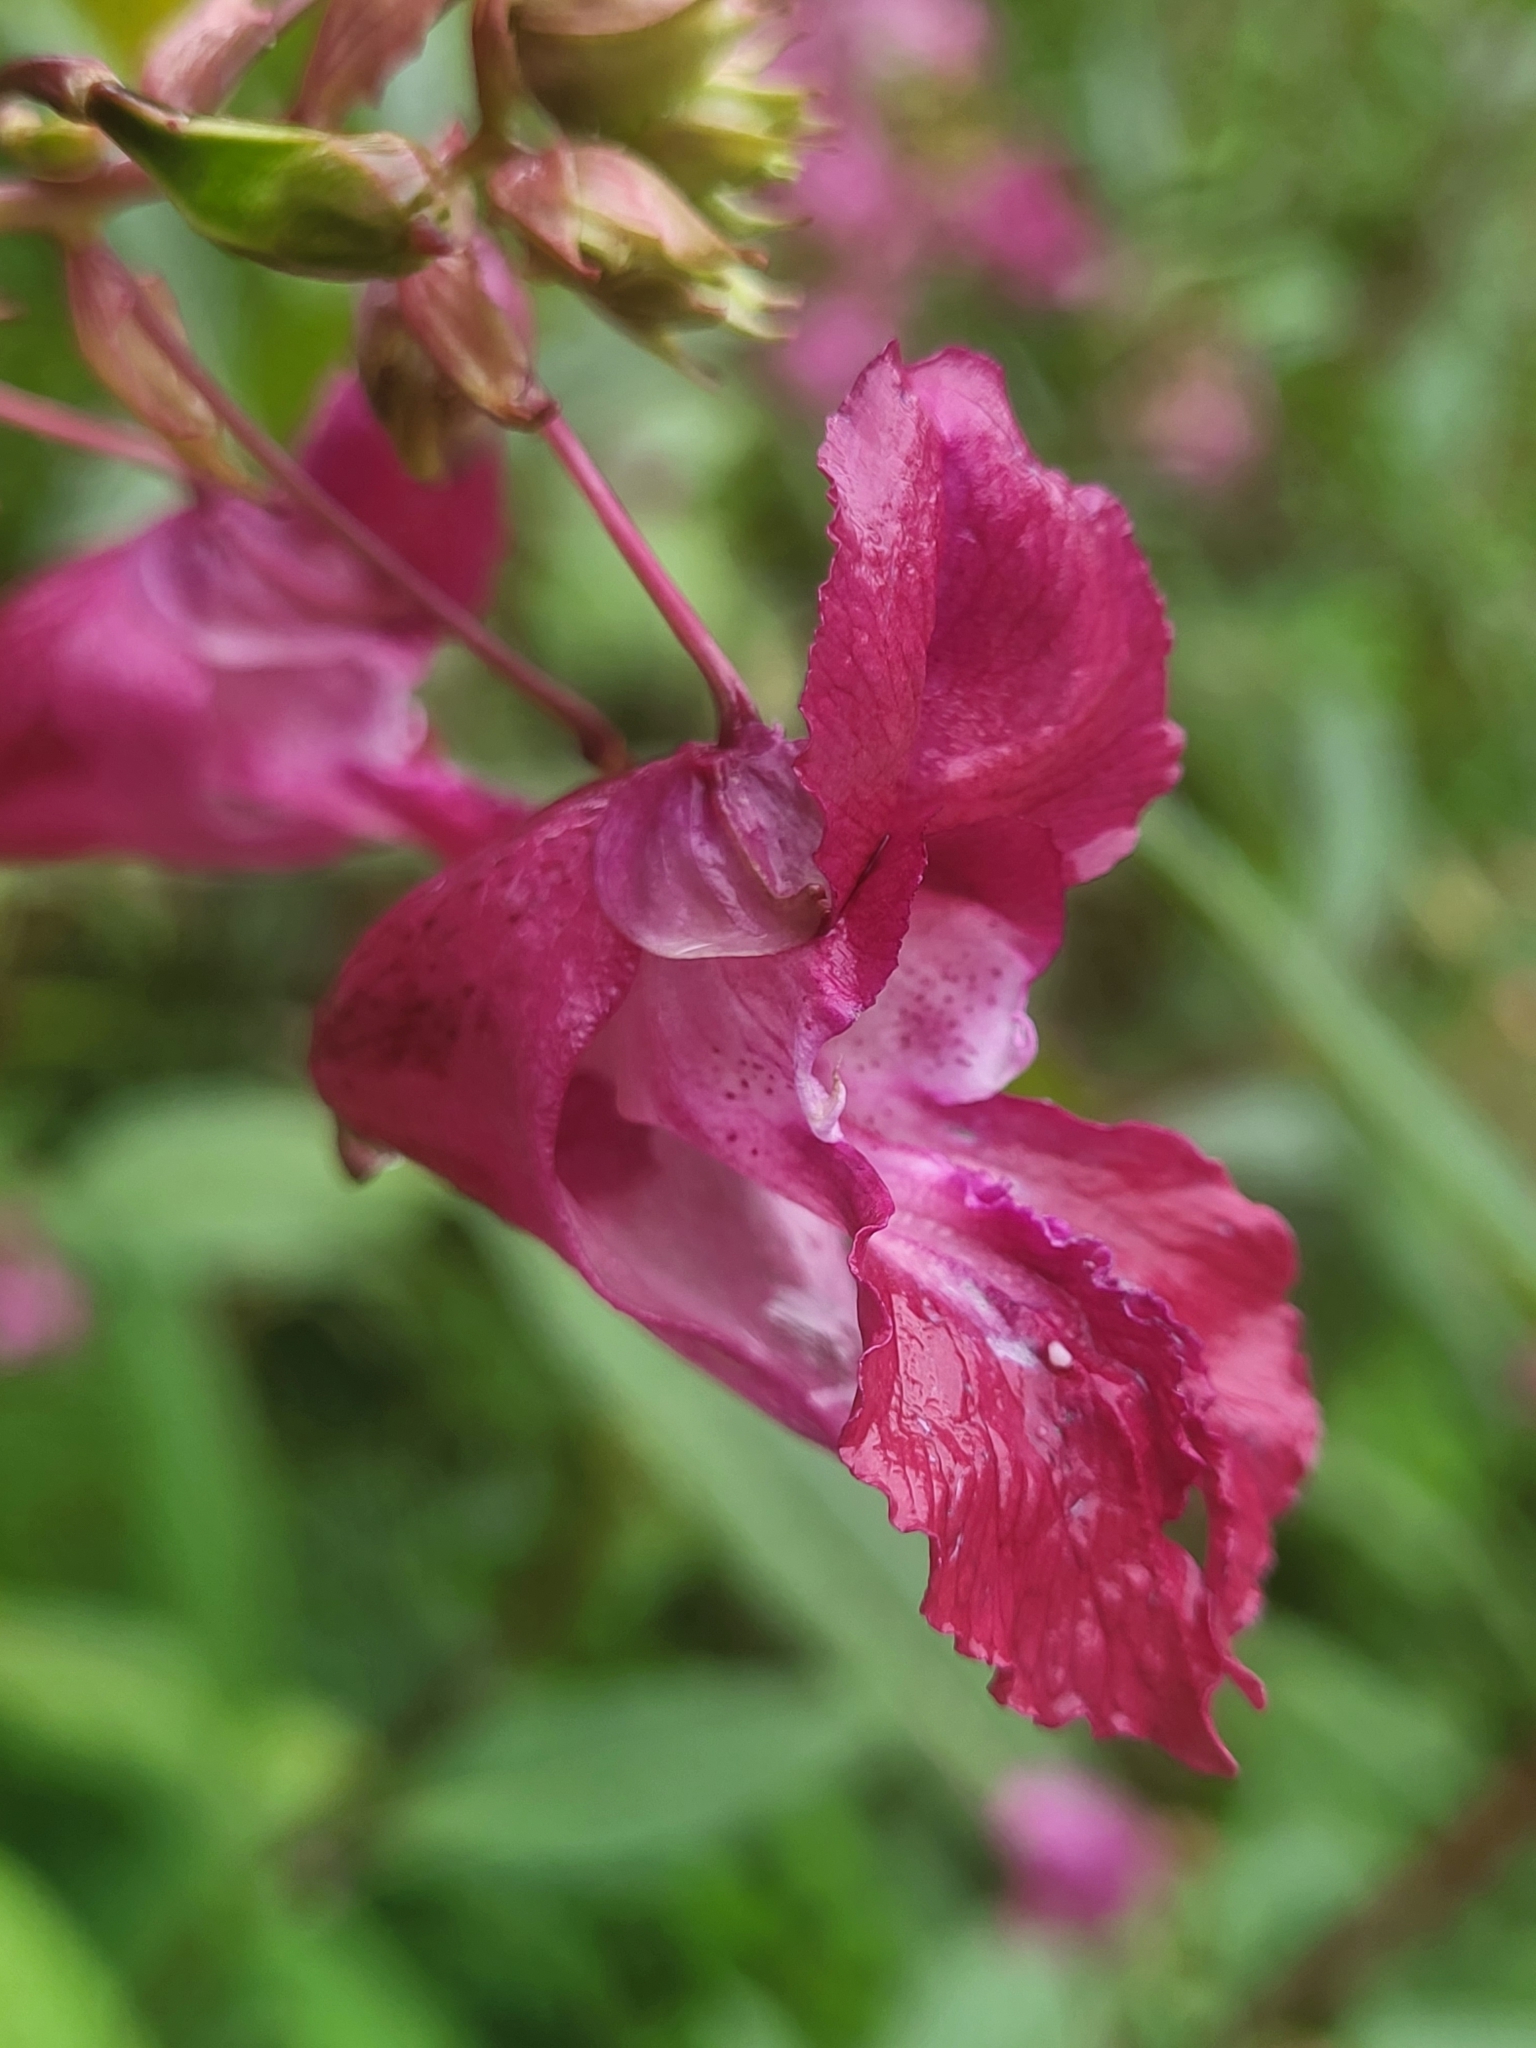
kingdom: Plantae
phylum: Tracheophyta
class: Magnoliopsida
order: Ericales
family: Balsaminaceae
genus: Impatiens
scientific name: Impatiens glandulifera
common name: Himalayan balsam
